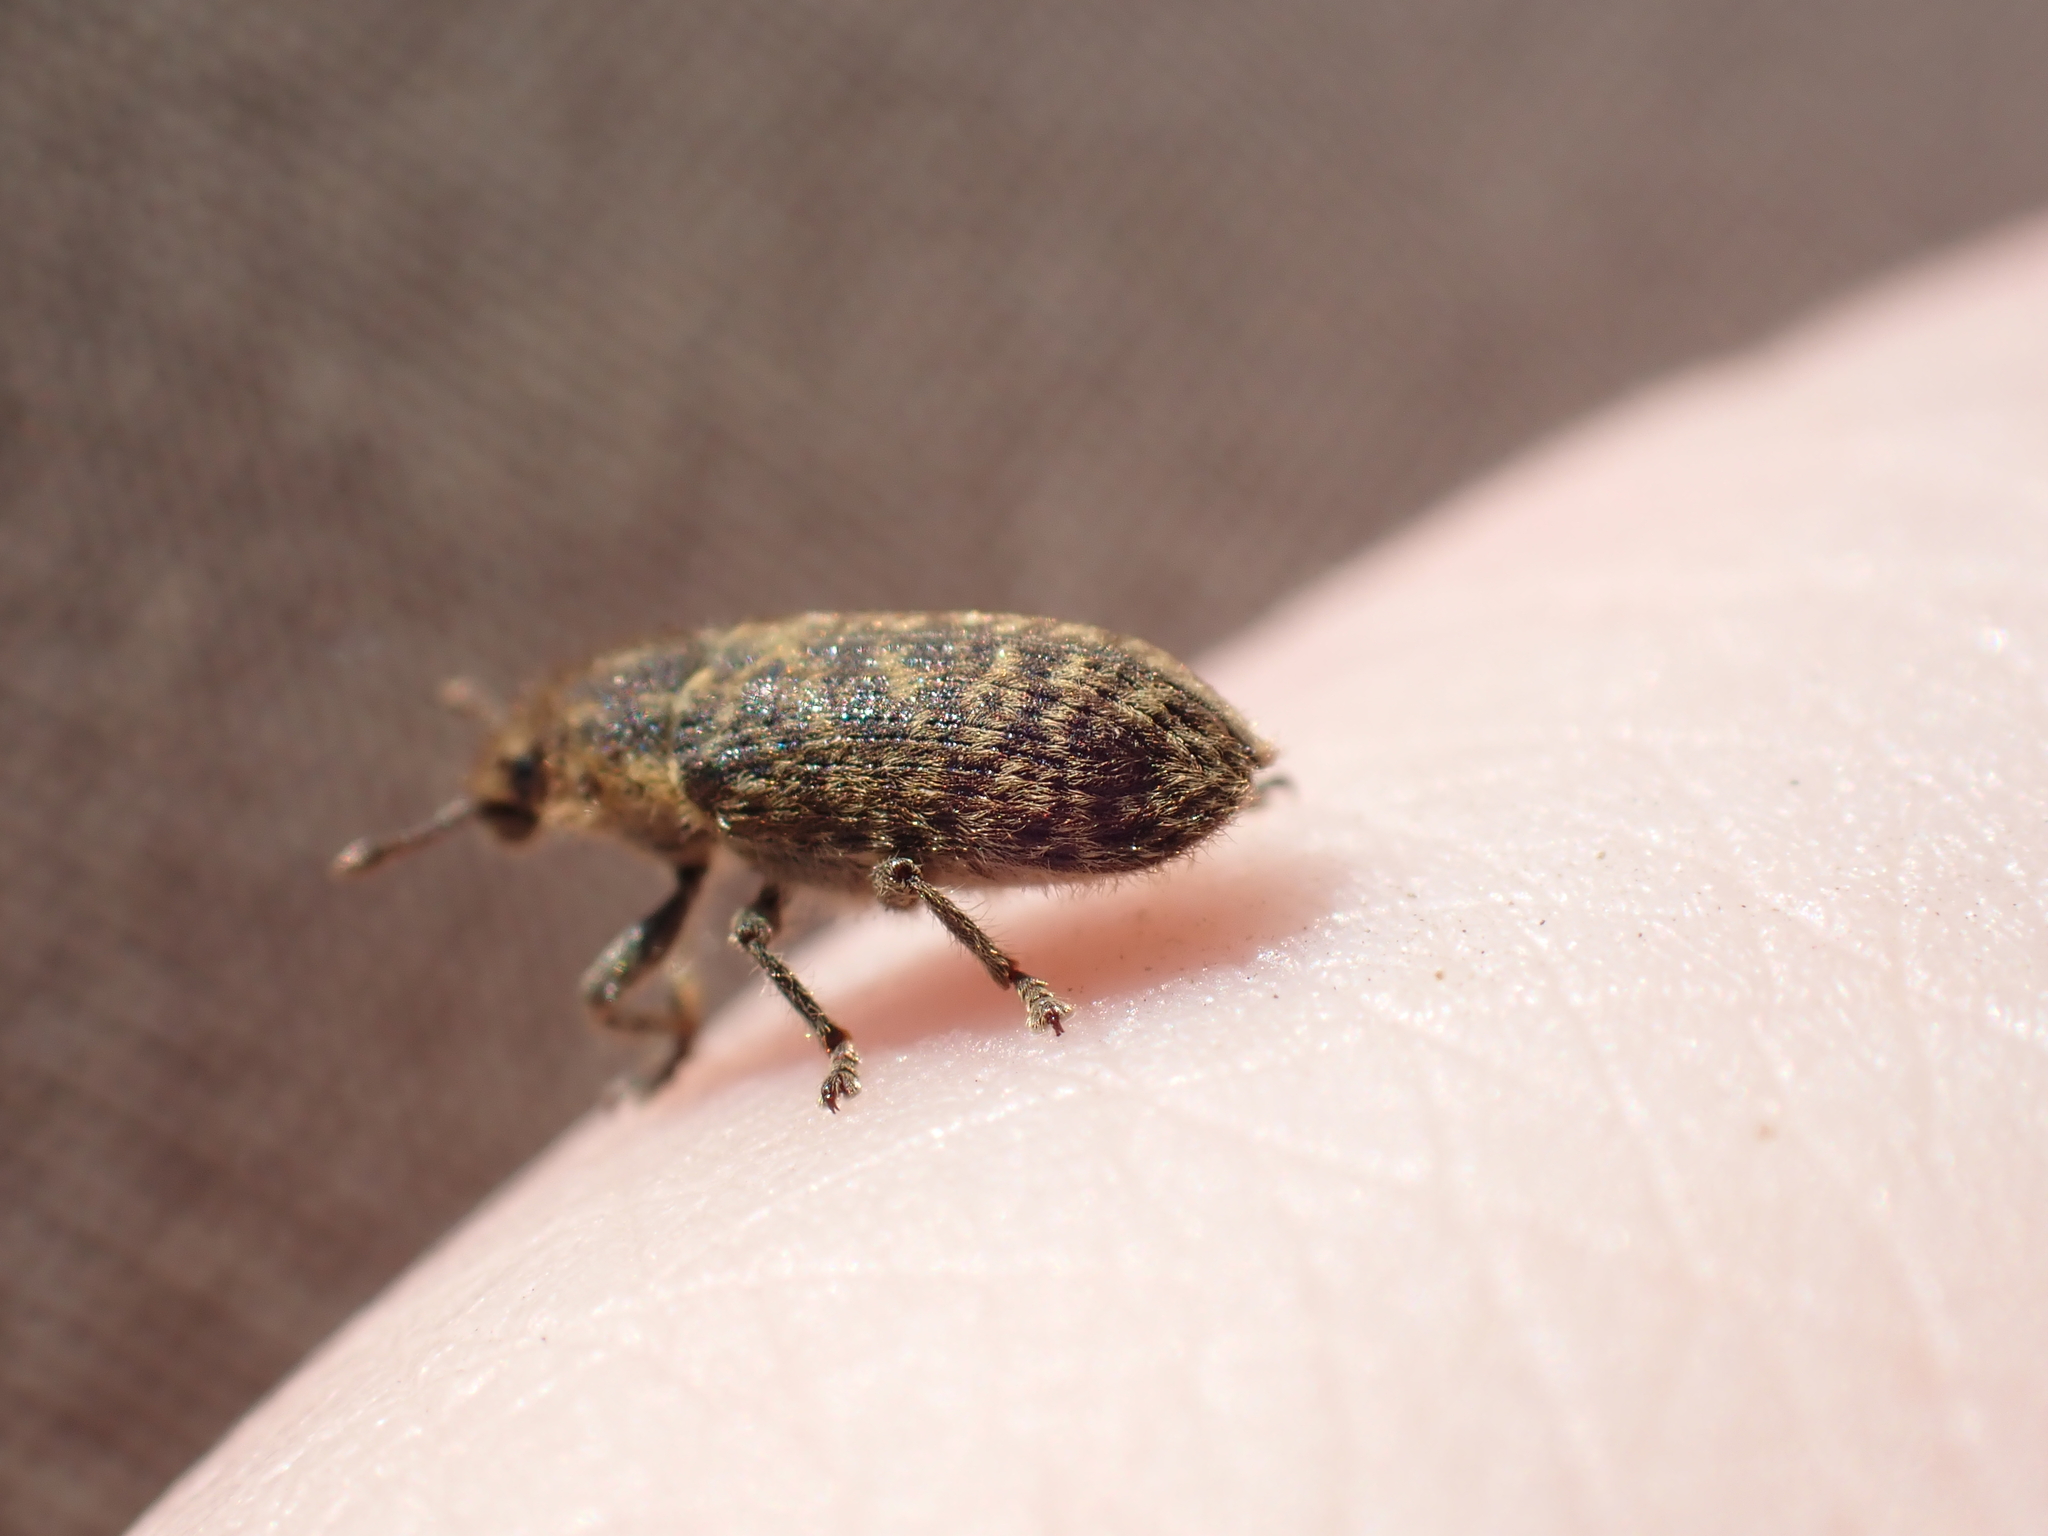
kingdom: Animalia
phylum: Arthropoda
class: Insecta
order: Coleoptera
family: Curculionidae
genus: Rhinocyllus
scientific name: Rhinocyllus conicus
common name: Weevil
